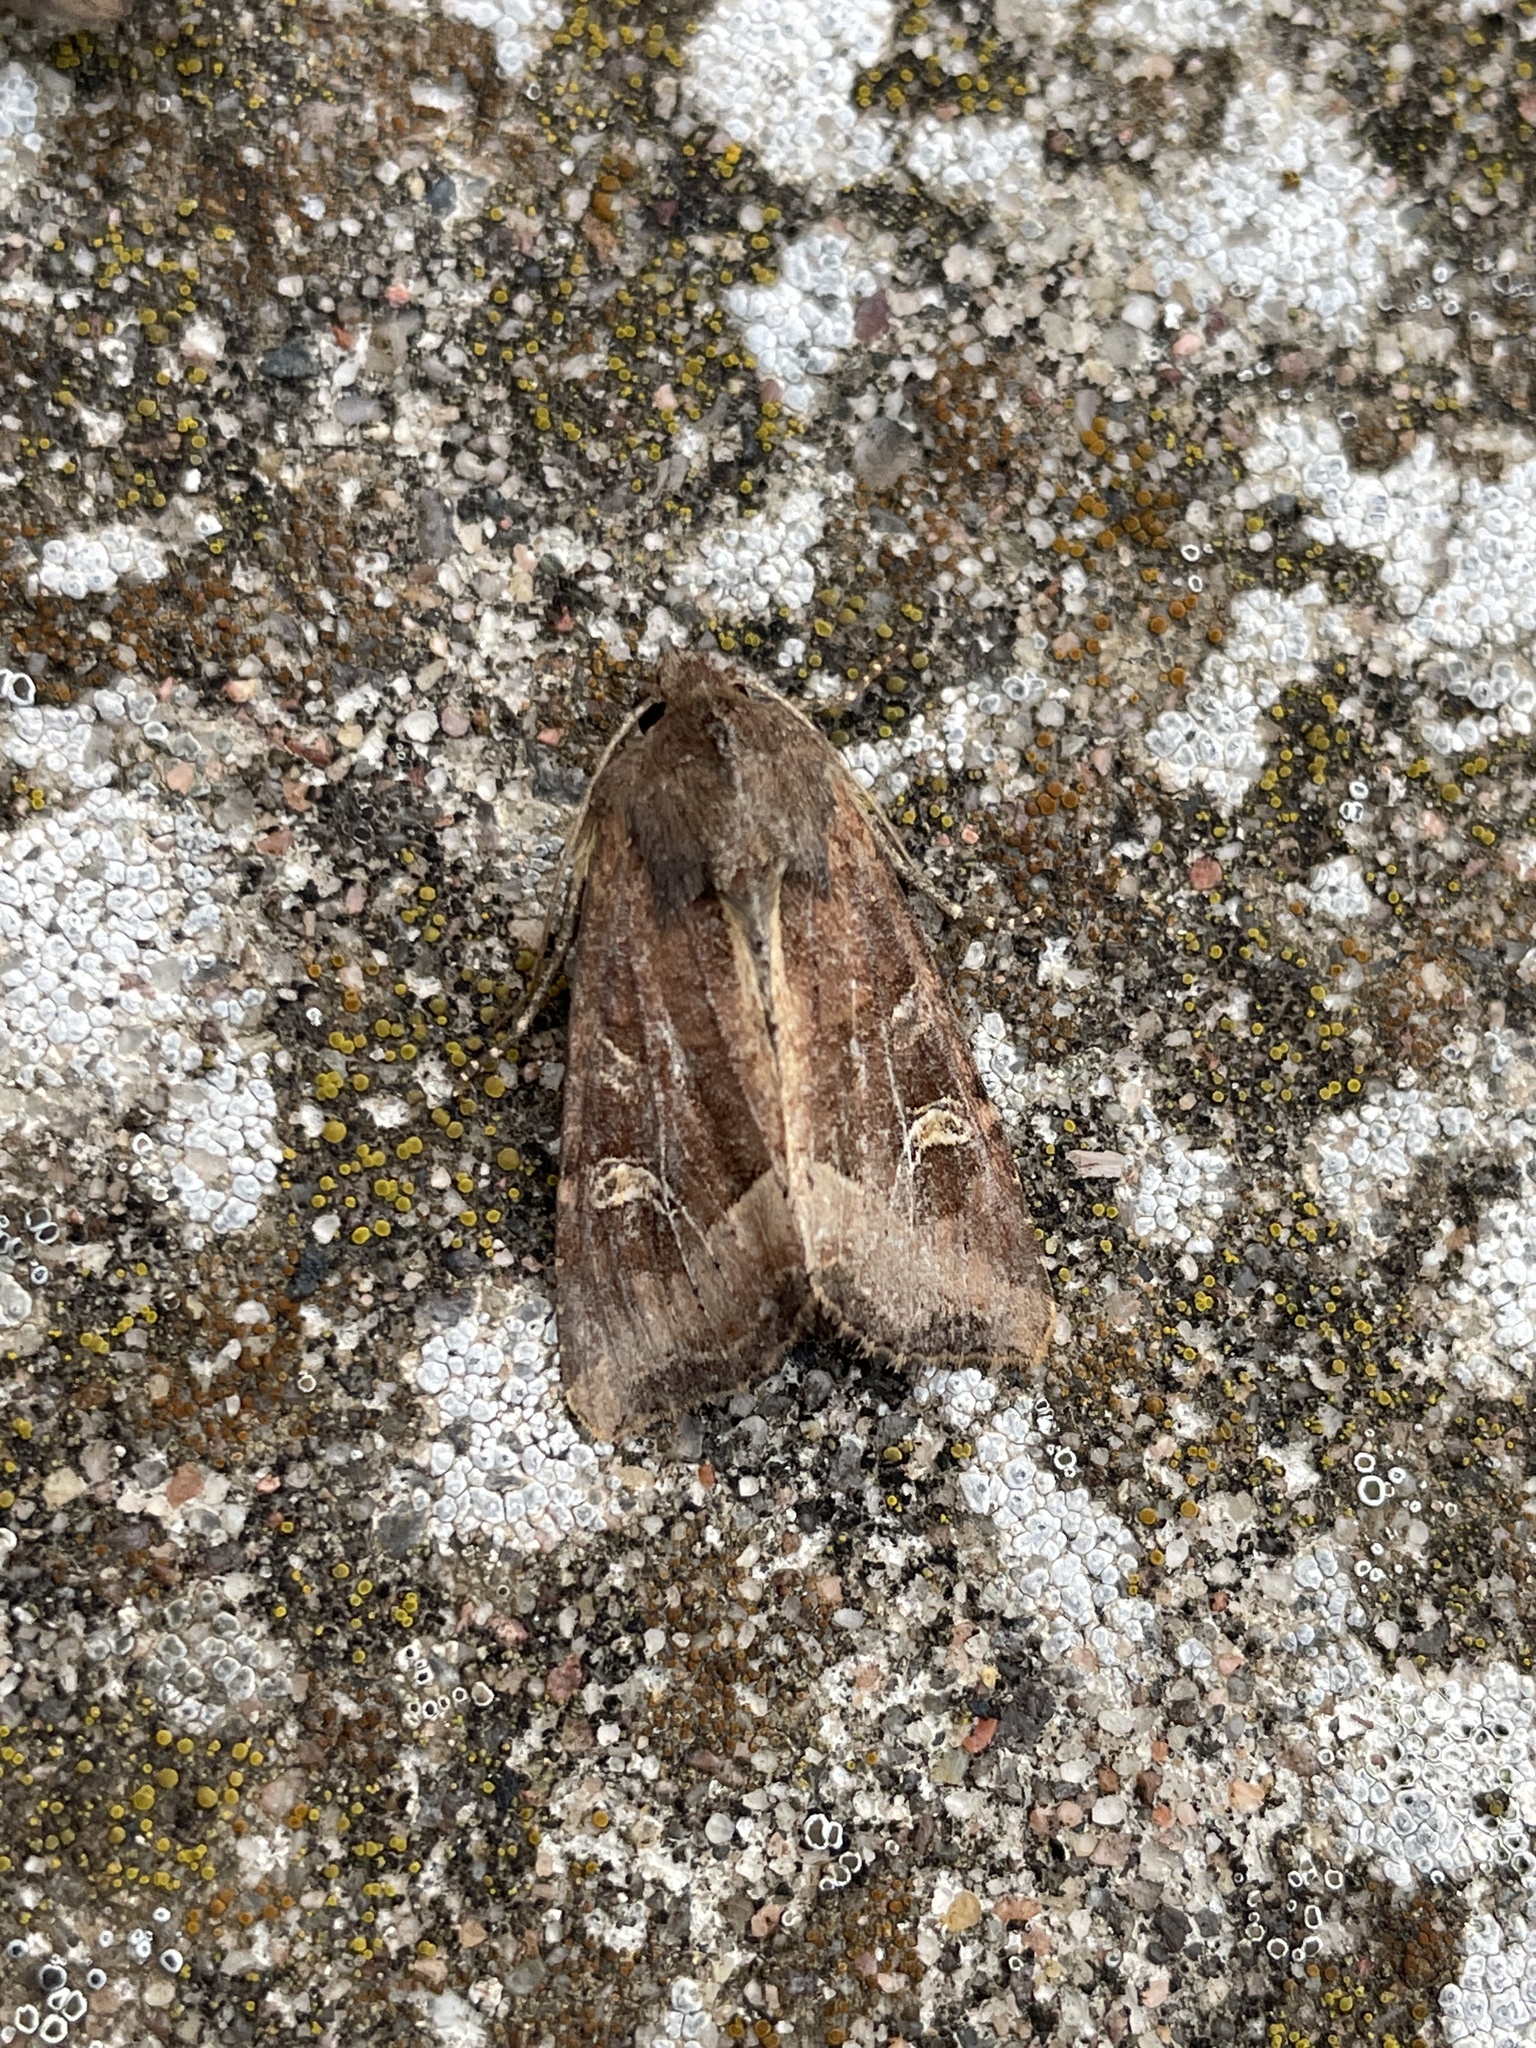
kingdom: Animalia
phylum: Arthropoda
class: Insecta
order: Lepidoptera
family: Noctuidae
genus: Helotropha
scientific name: Helotropha leucostigma
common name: The crescent
